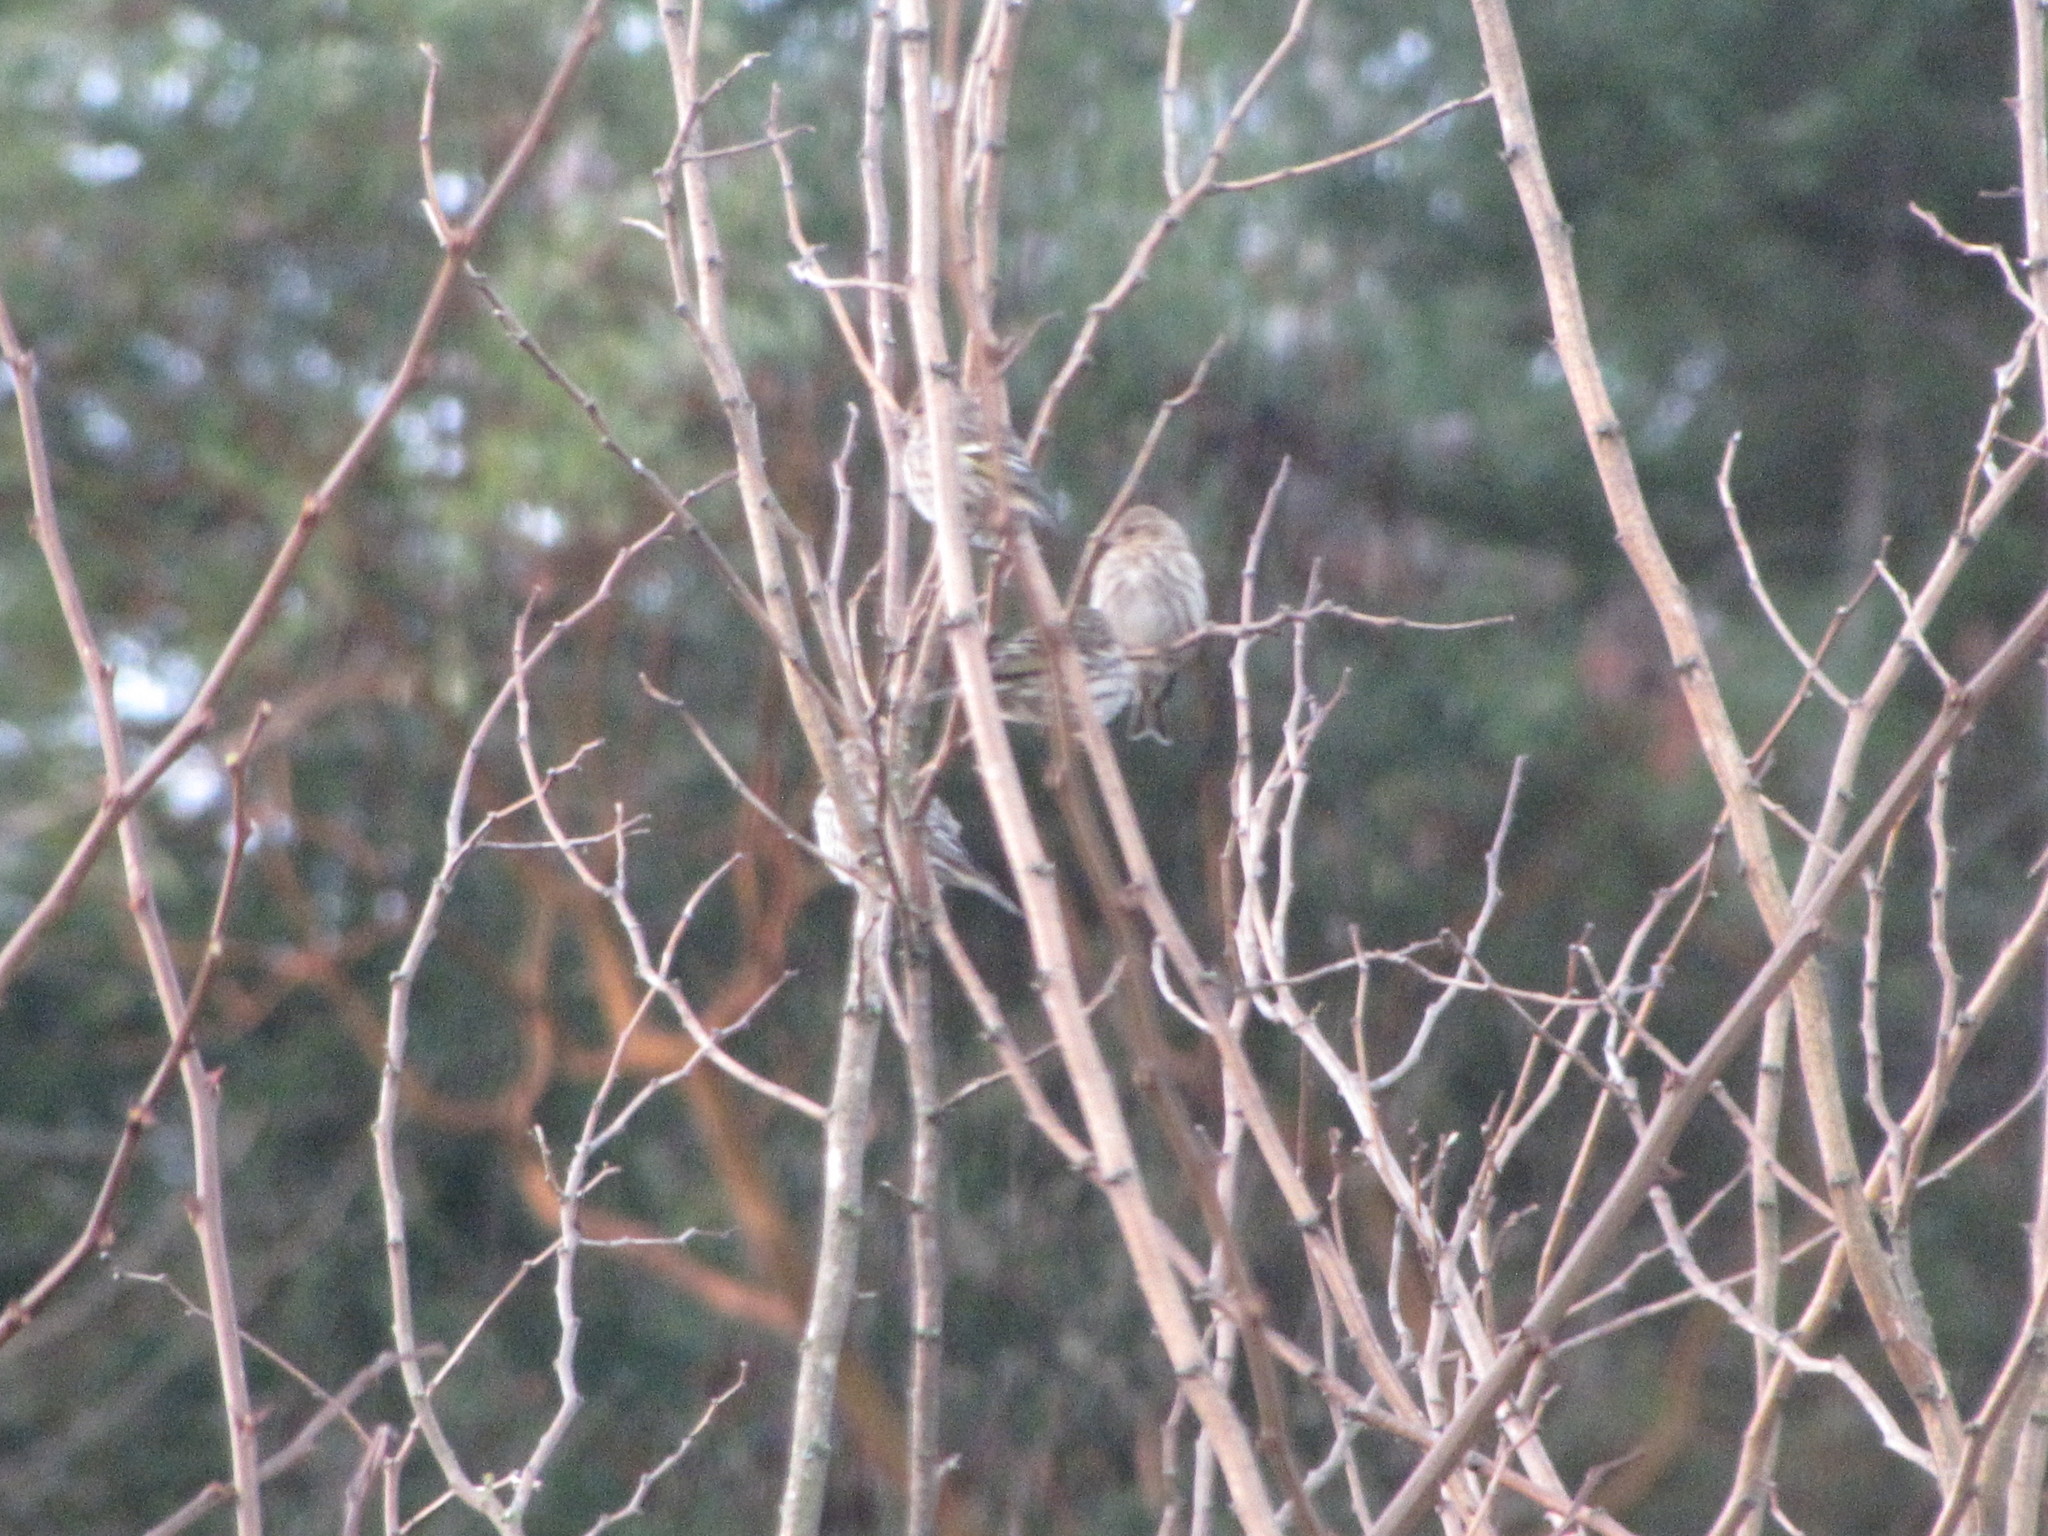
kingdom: Animalia
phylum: Chordata
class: Aves
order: Passeriformes
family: Fringillidae
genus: Spinus
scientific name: Spinus pinus
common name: Pine siskin
